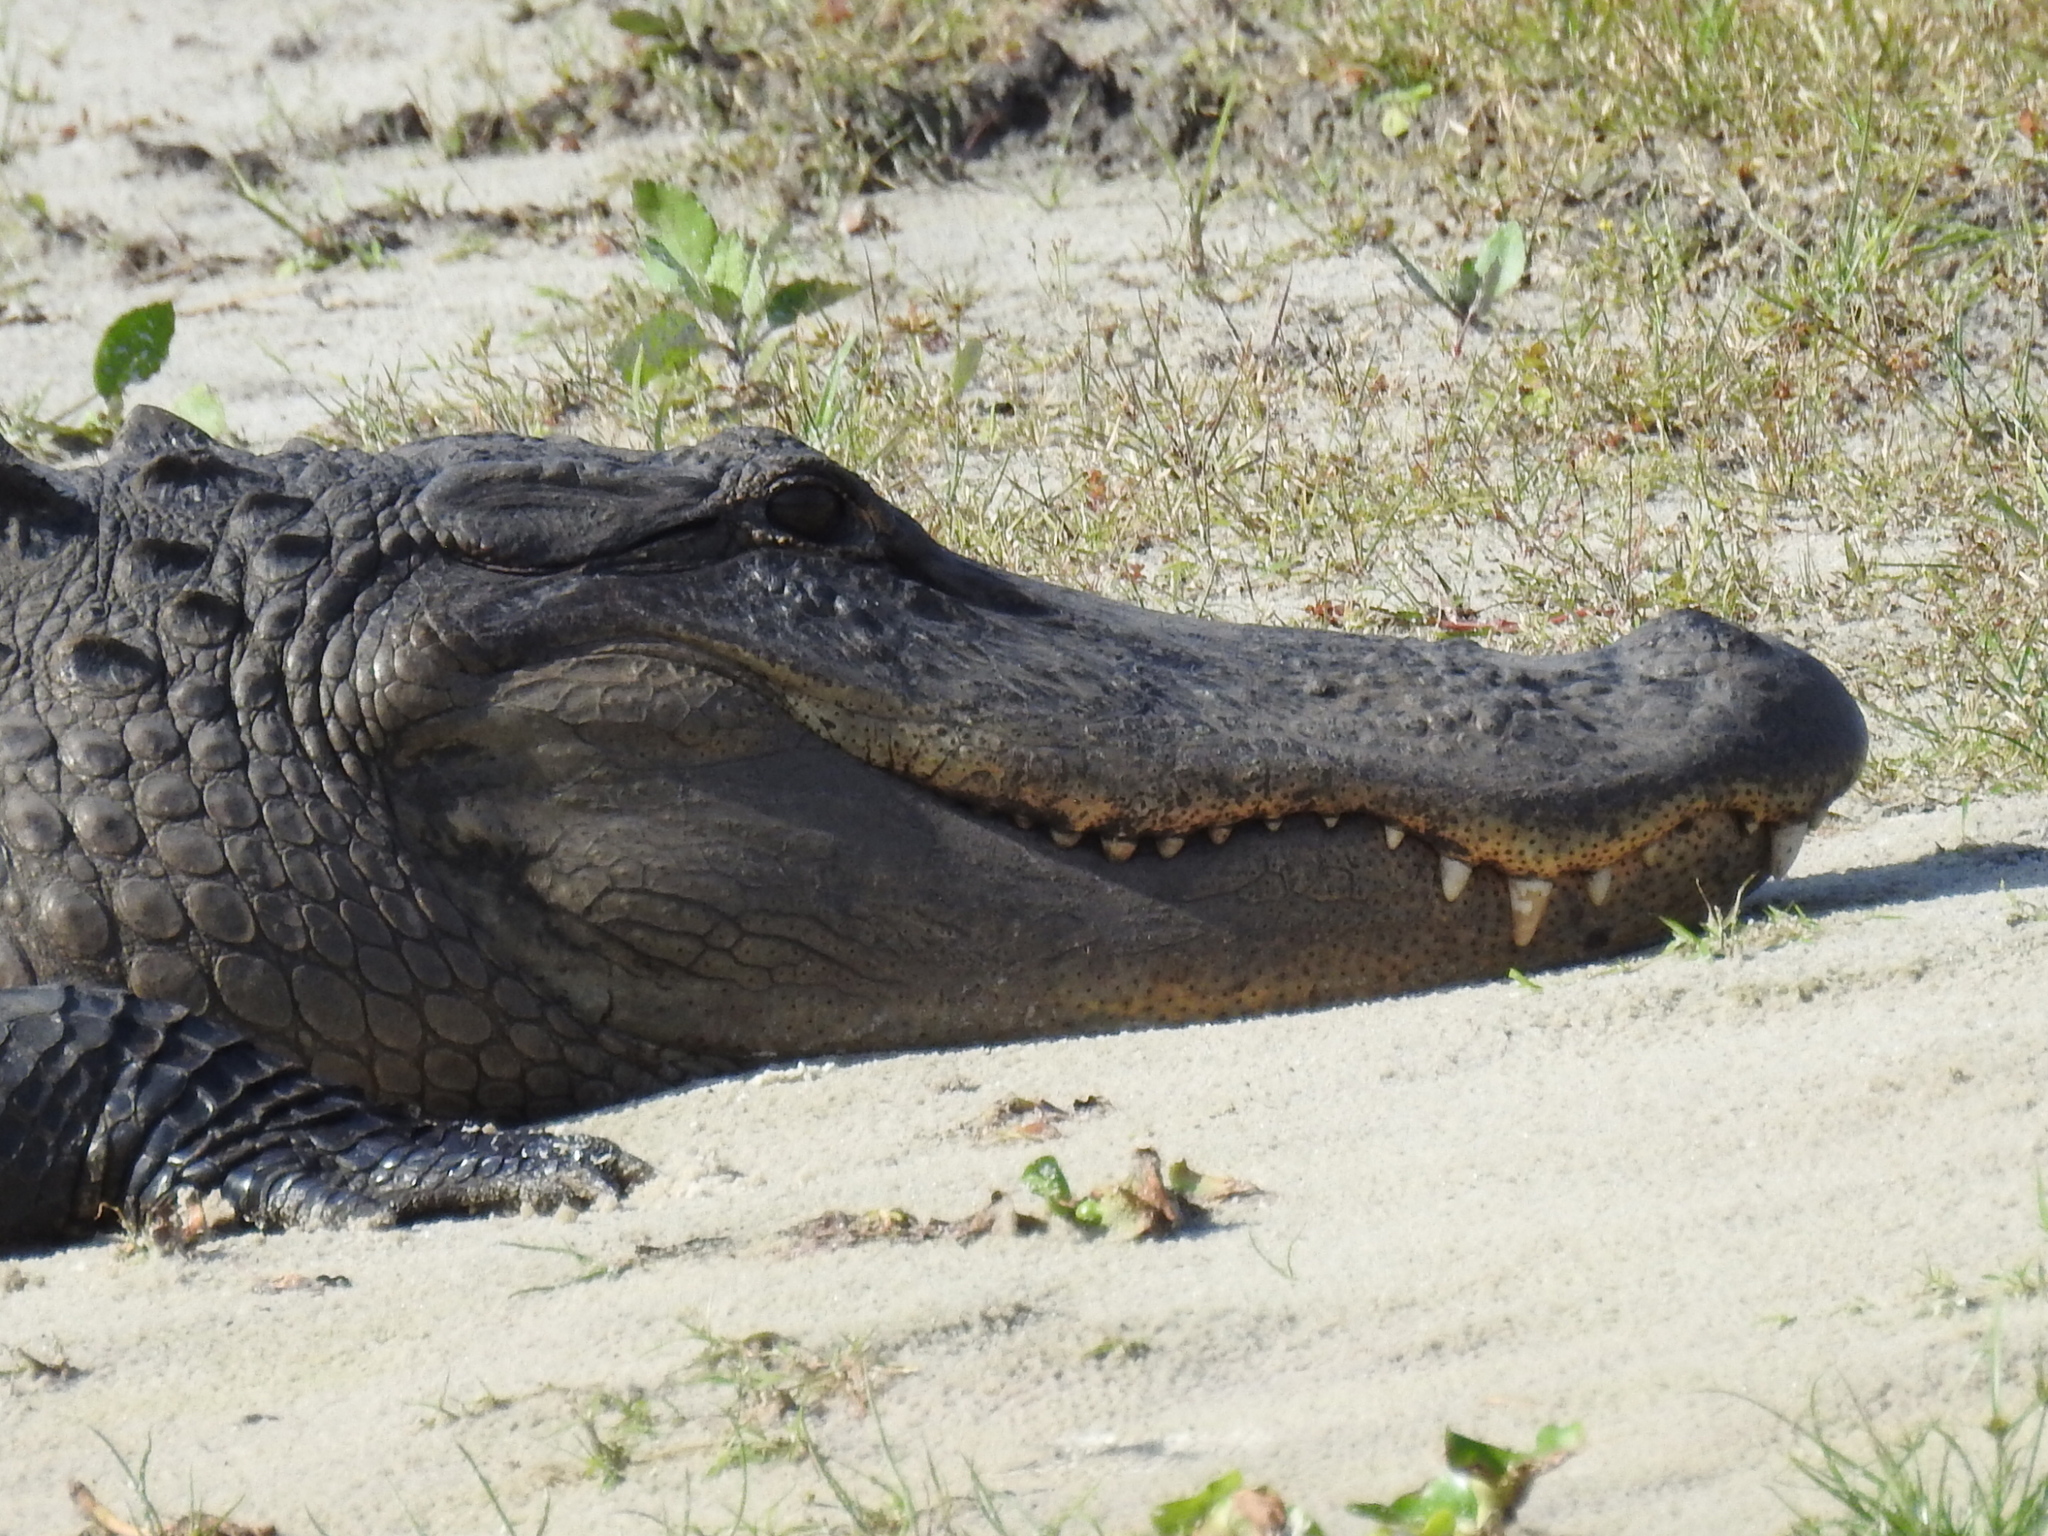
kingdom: Animalia
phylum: Chordata
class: Crocodylia
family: Alligatoridae
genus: Alligator
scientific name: Alligator mississippiensis
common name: American alligator
